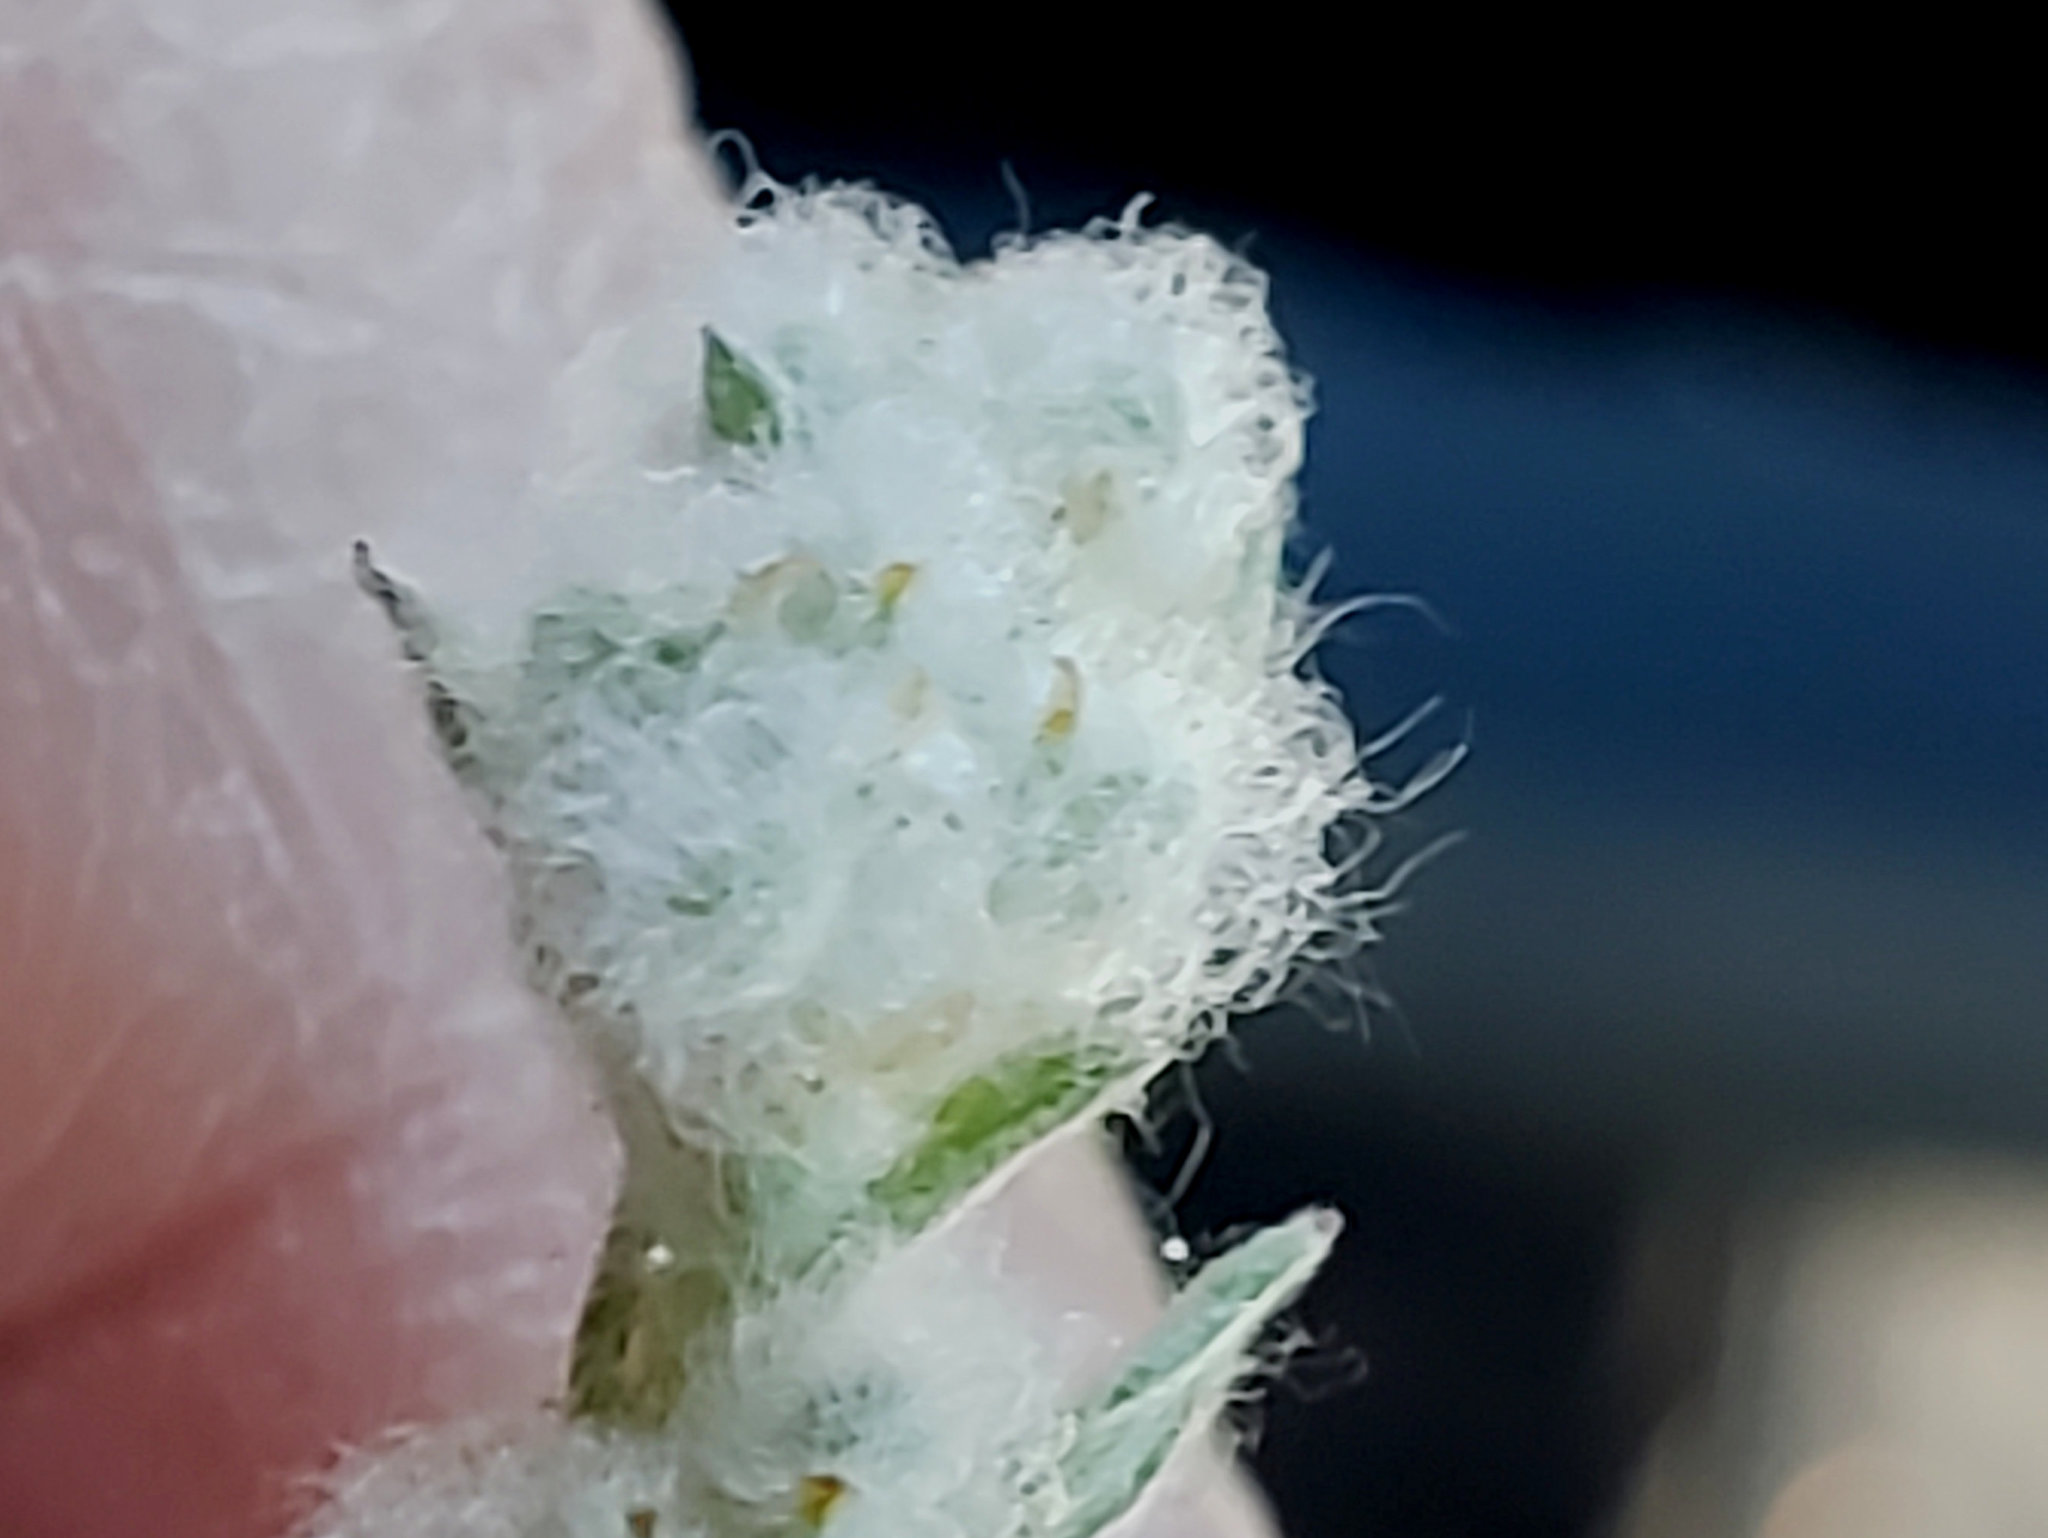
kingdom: Plantae
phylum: Tracheophyta
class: Magnoliopsida
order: Asterales
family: Asteraceae
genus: Bombycilaena
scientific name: Bombycilaena californica
